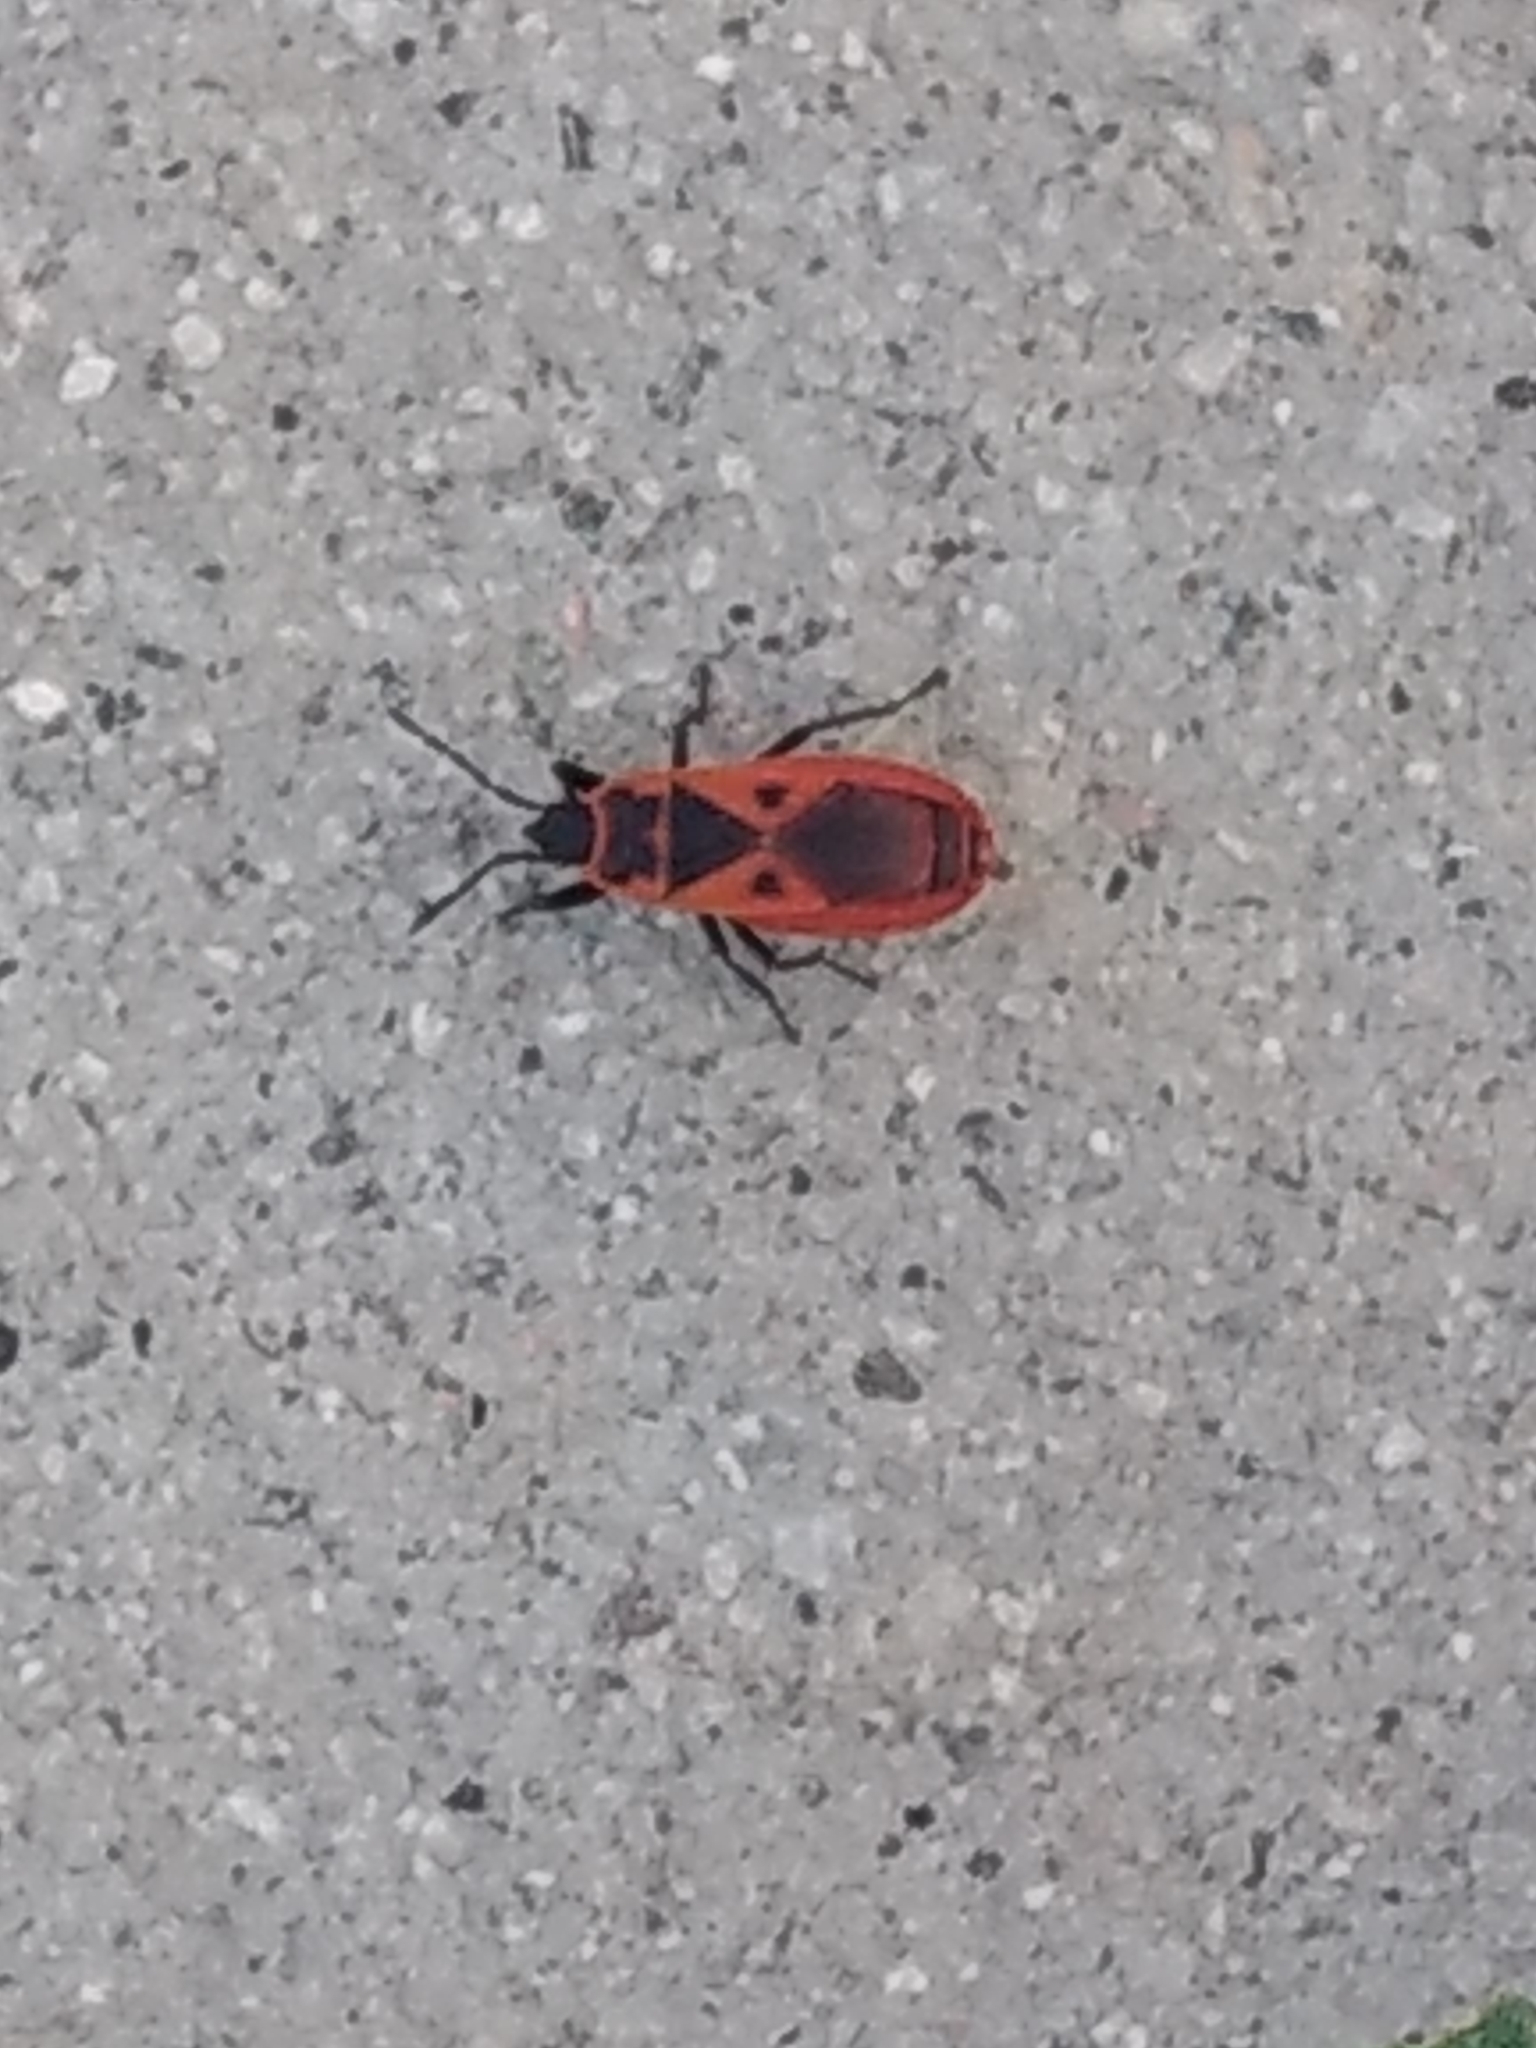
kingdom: Animalia
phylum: Arthropoda
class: Insecta
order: Hemiptera
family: Pyrrhocoridae
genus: Scantius
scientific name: Scantius aegyptius
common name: Red bug
